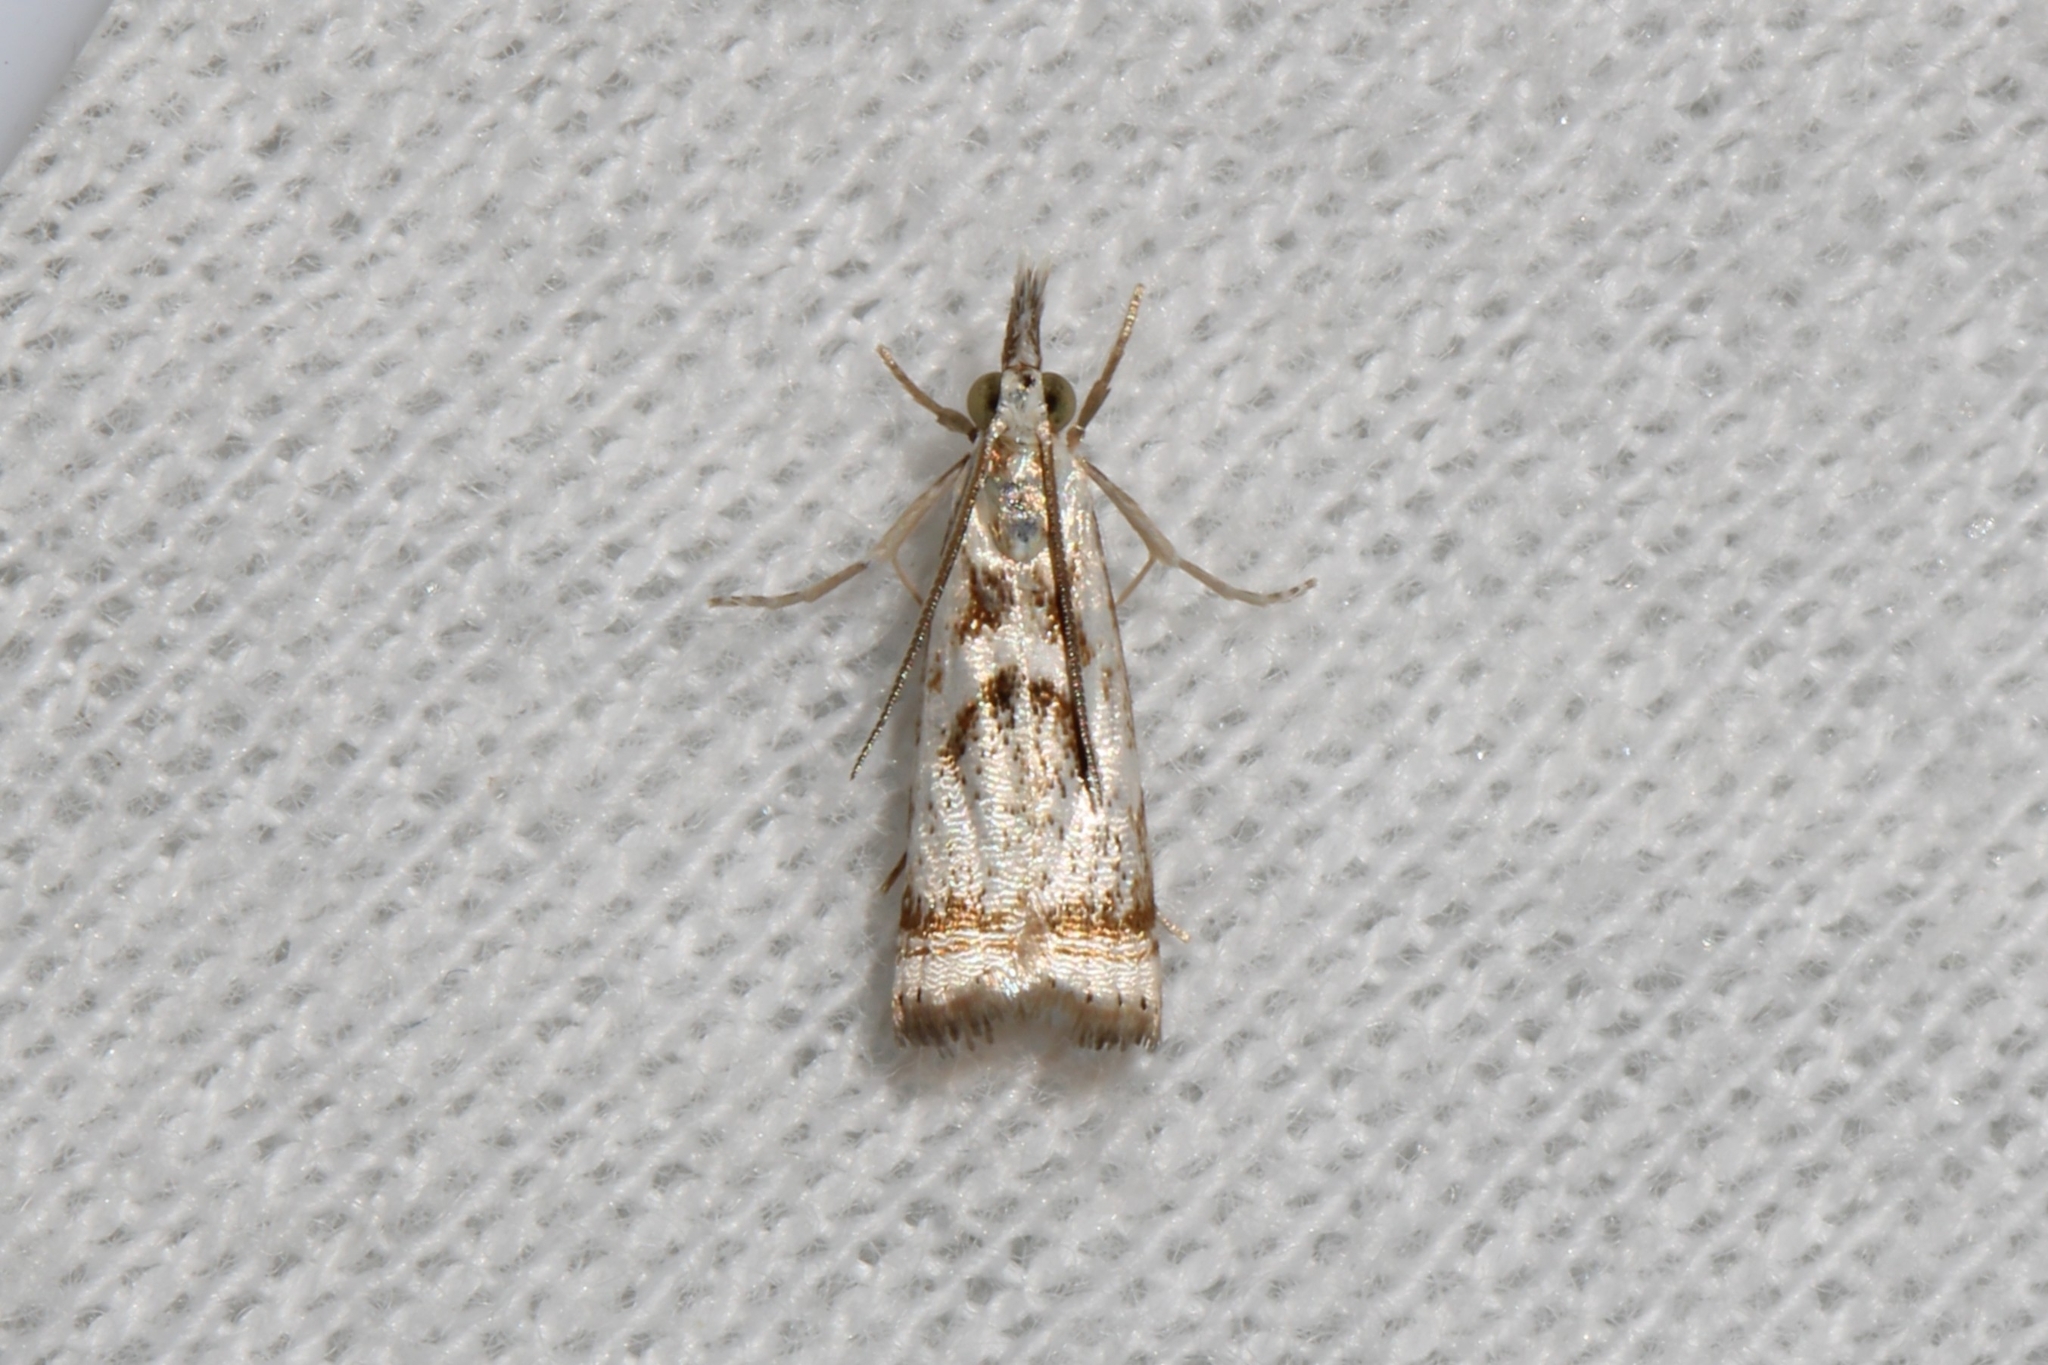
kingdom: Animalia
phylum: Arthropoda
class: Insecta
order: Lepidoptera
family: Crambidae
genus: Microcrambus
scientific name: Microcrambus elegans
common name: Elegant grass-veneer
